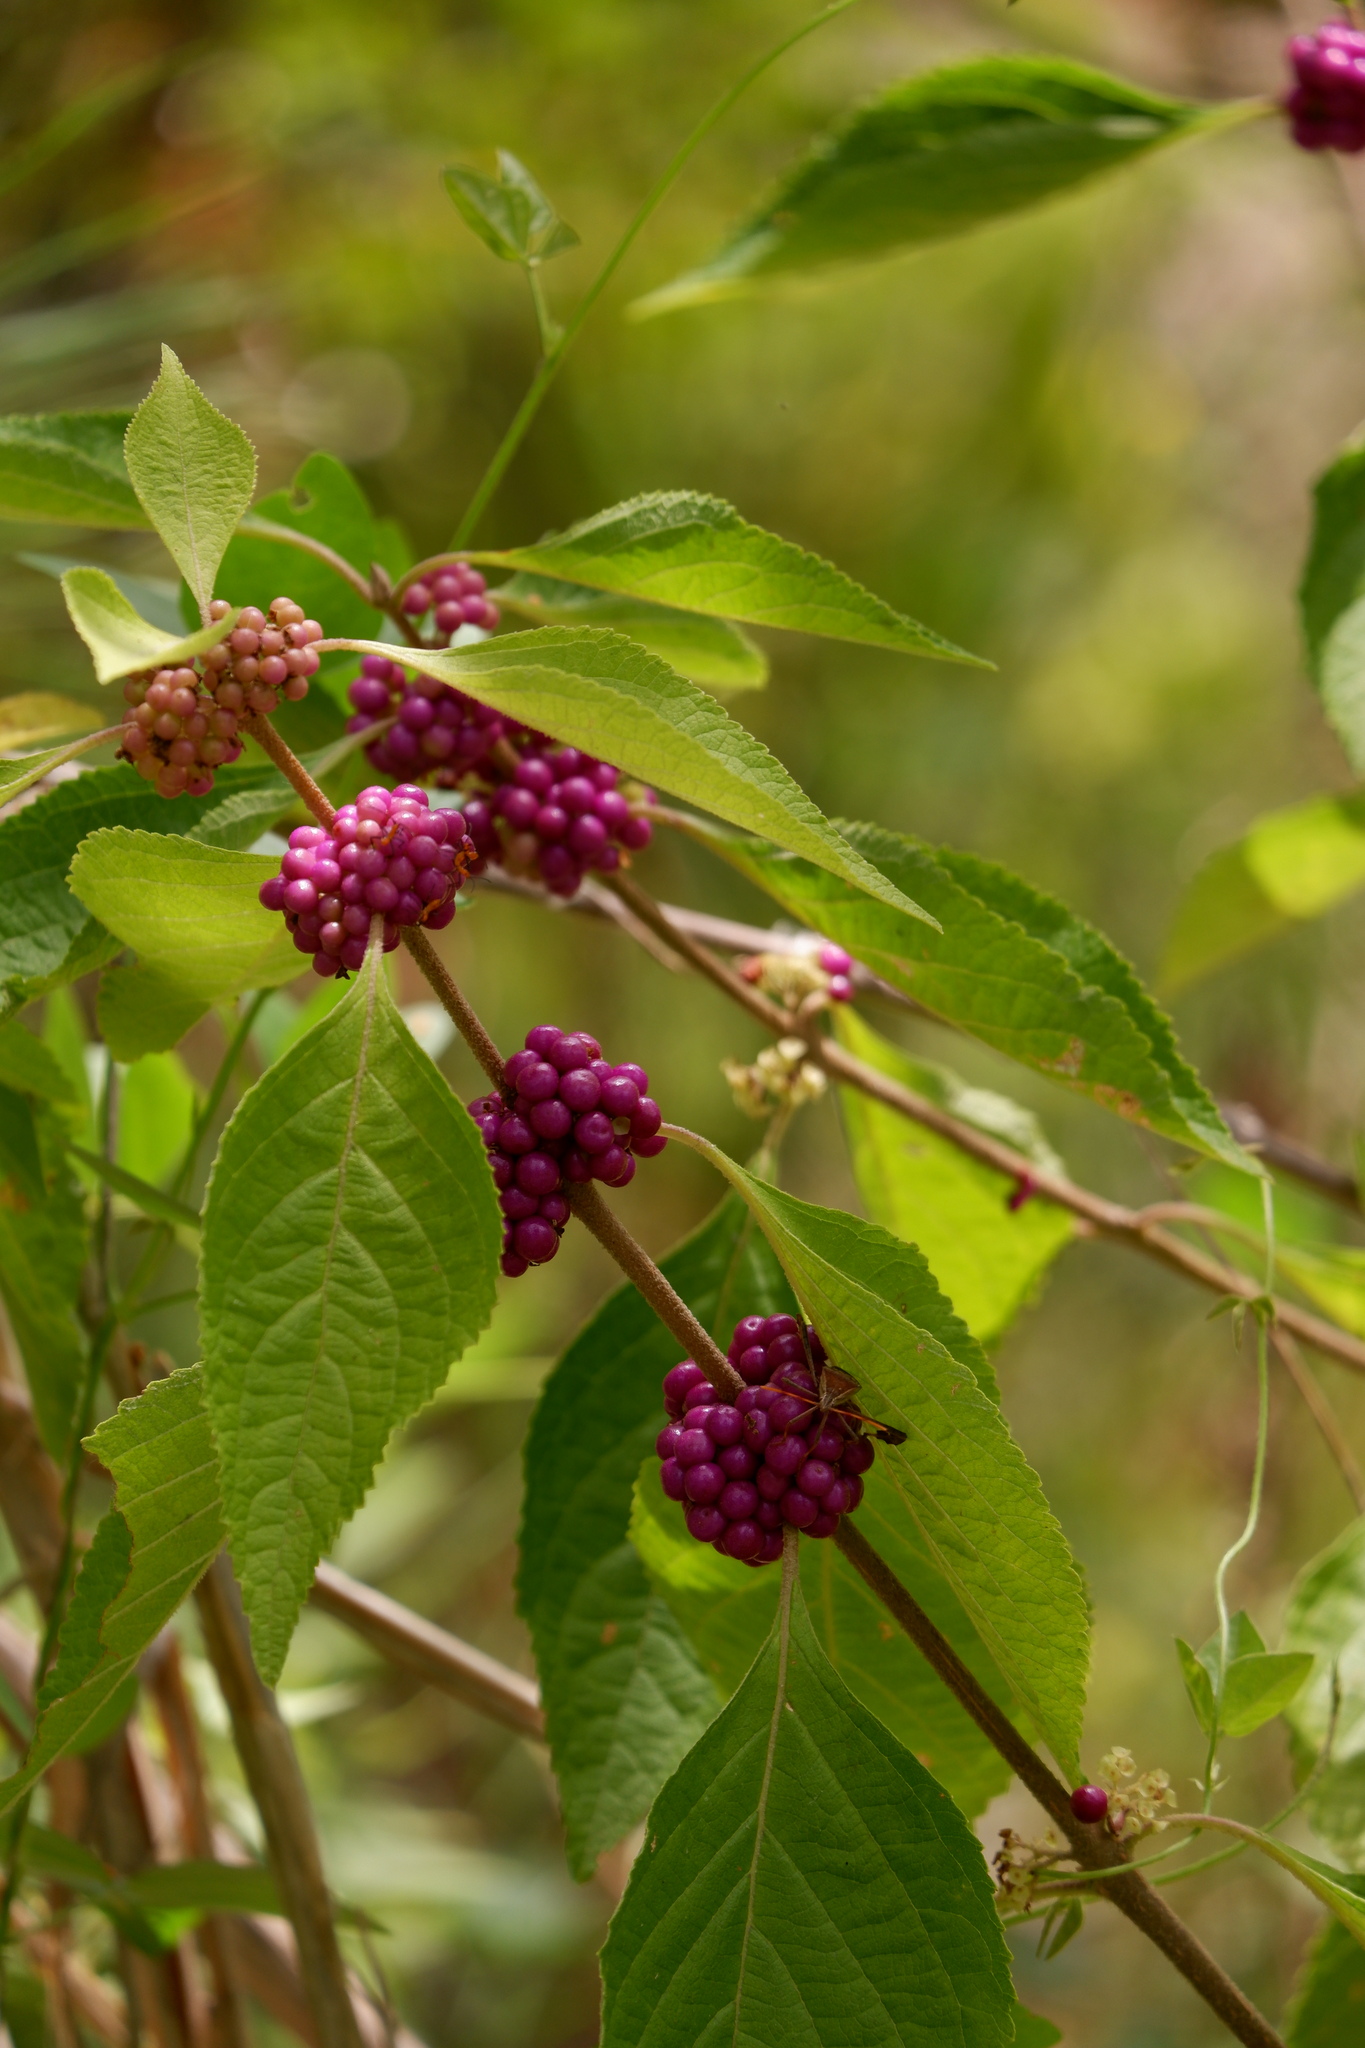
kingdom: Plantae
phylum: Tracheophyta
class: Magnoliopsida
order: Lamiales
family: Lamiaceae
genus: Callicarpa
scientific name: Callicarpa americana
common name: American beautyberry
